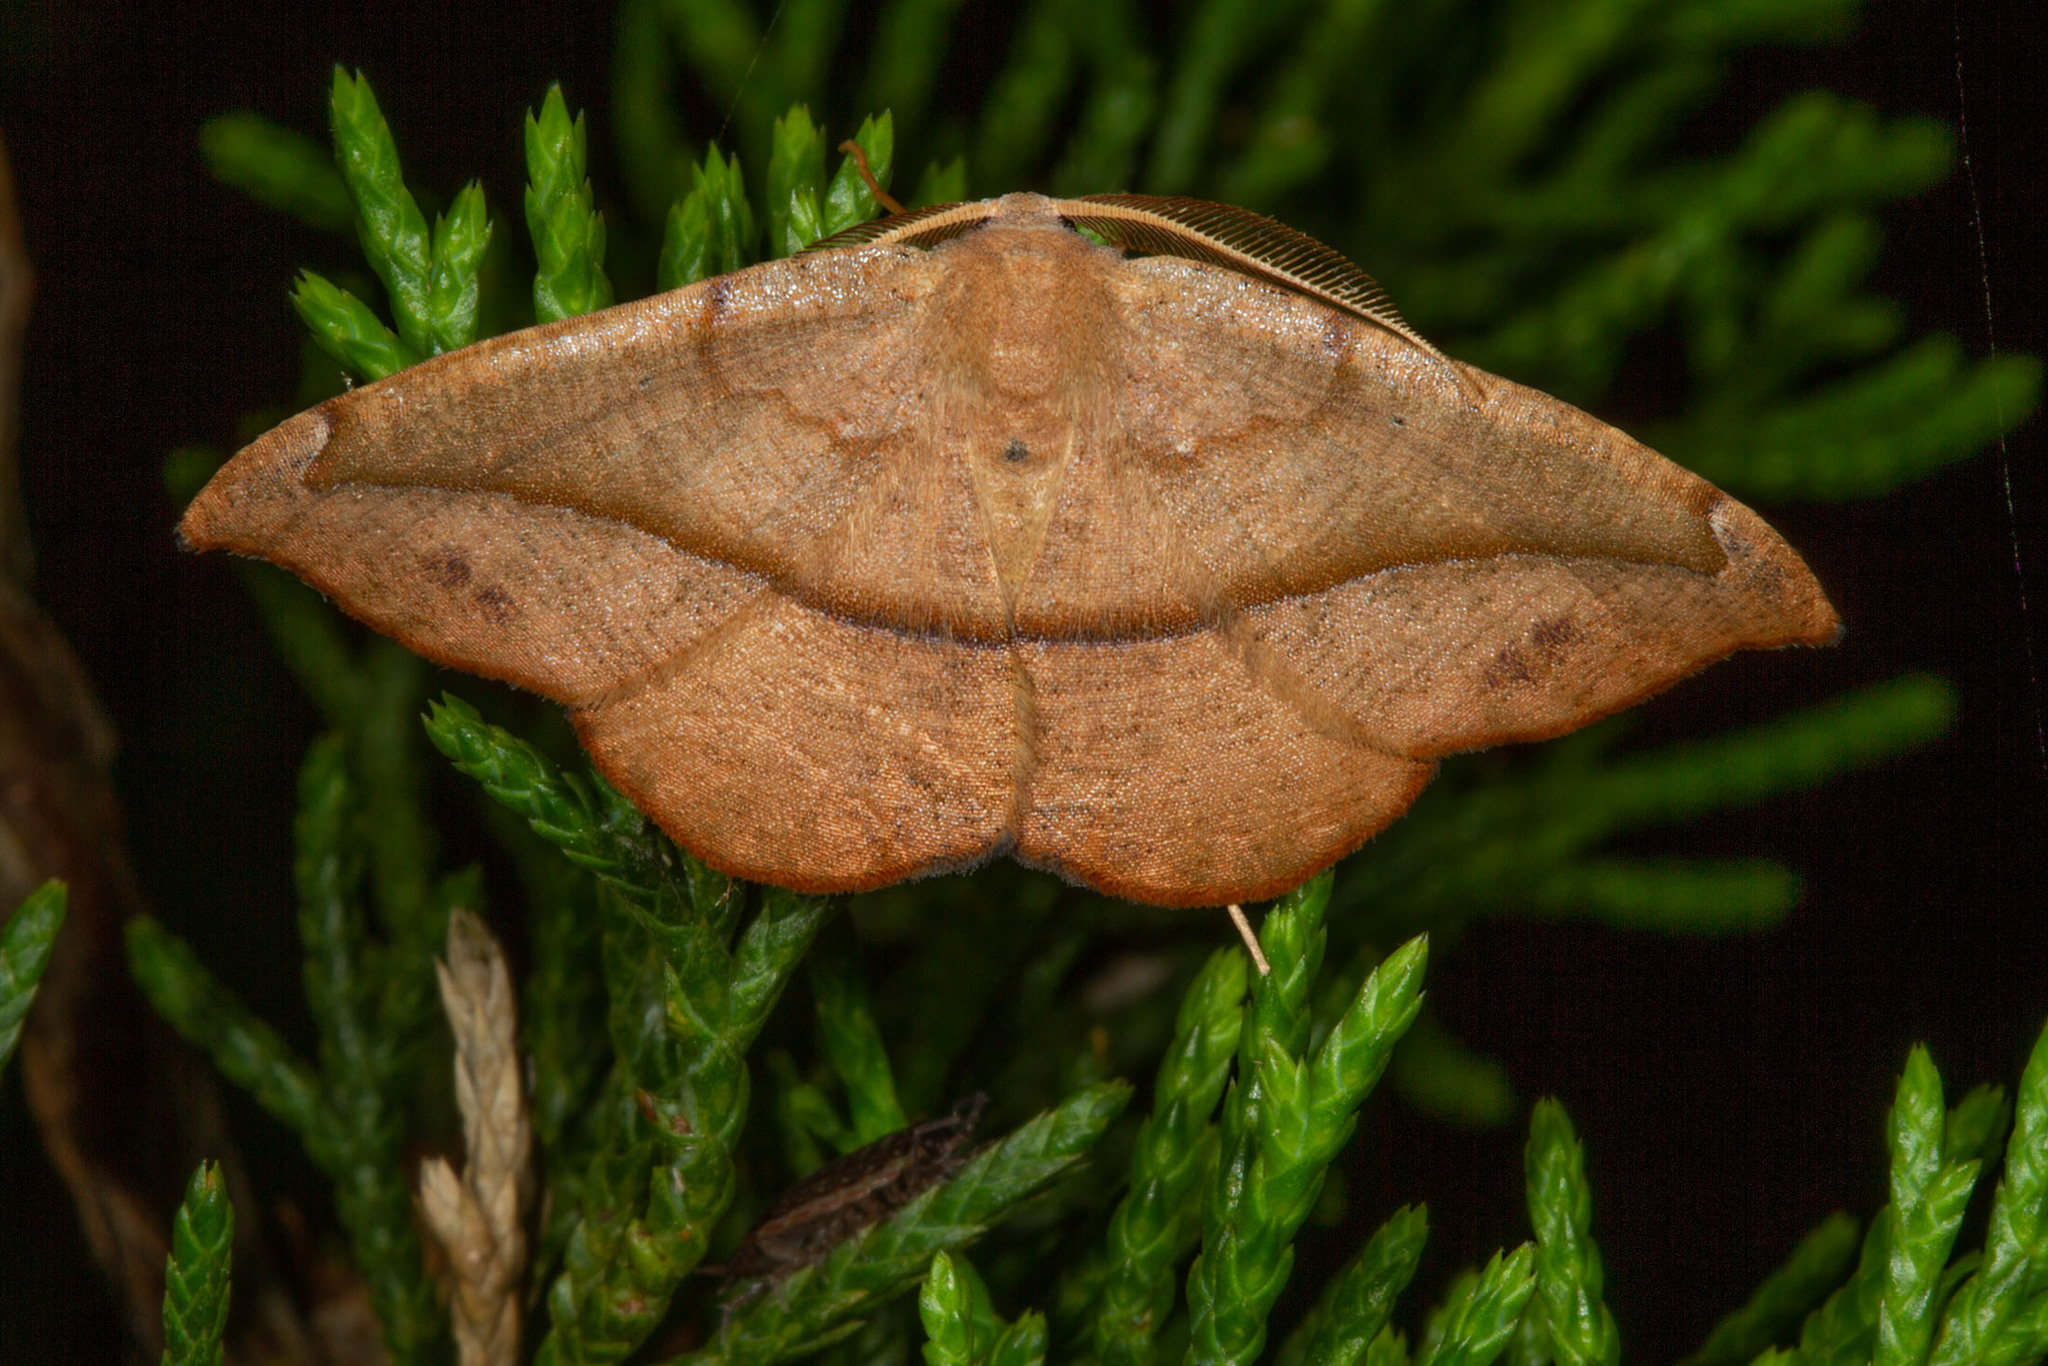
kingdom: Animalia
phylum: Arthropoda
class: Insecta
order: Lepidoptera
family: Geometridae
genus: Patalene
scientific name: Patalene olyzonaria
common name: Juniper geometer moth
